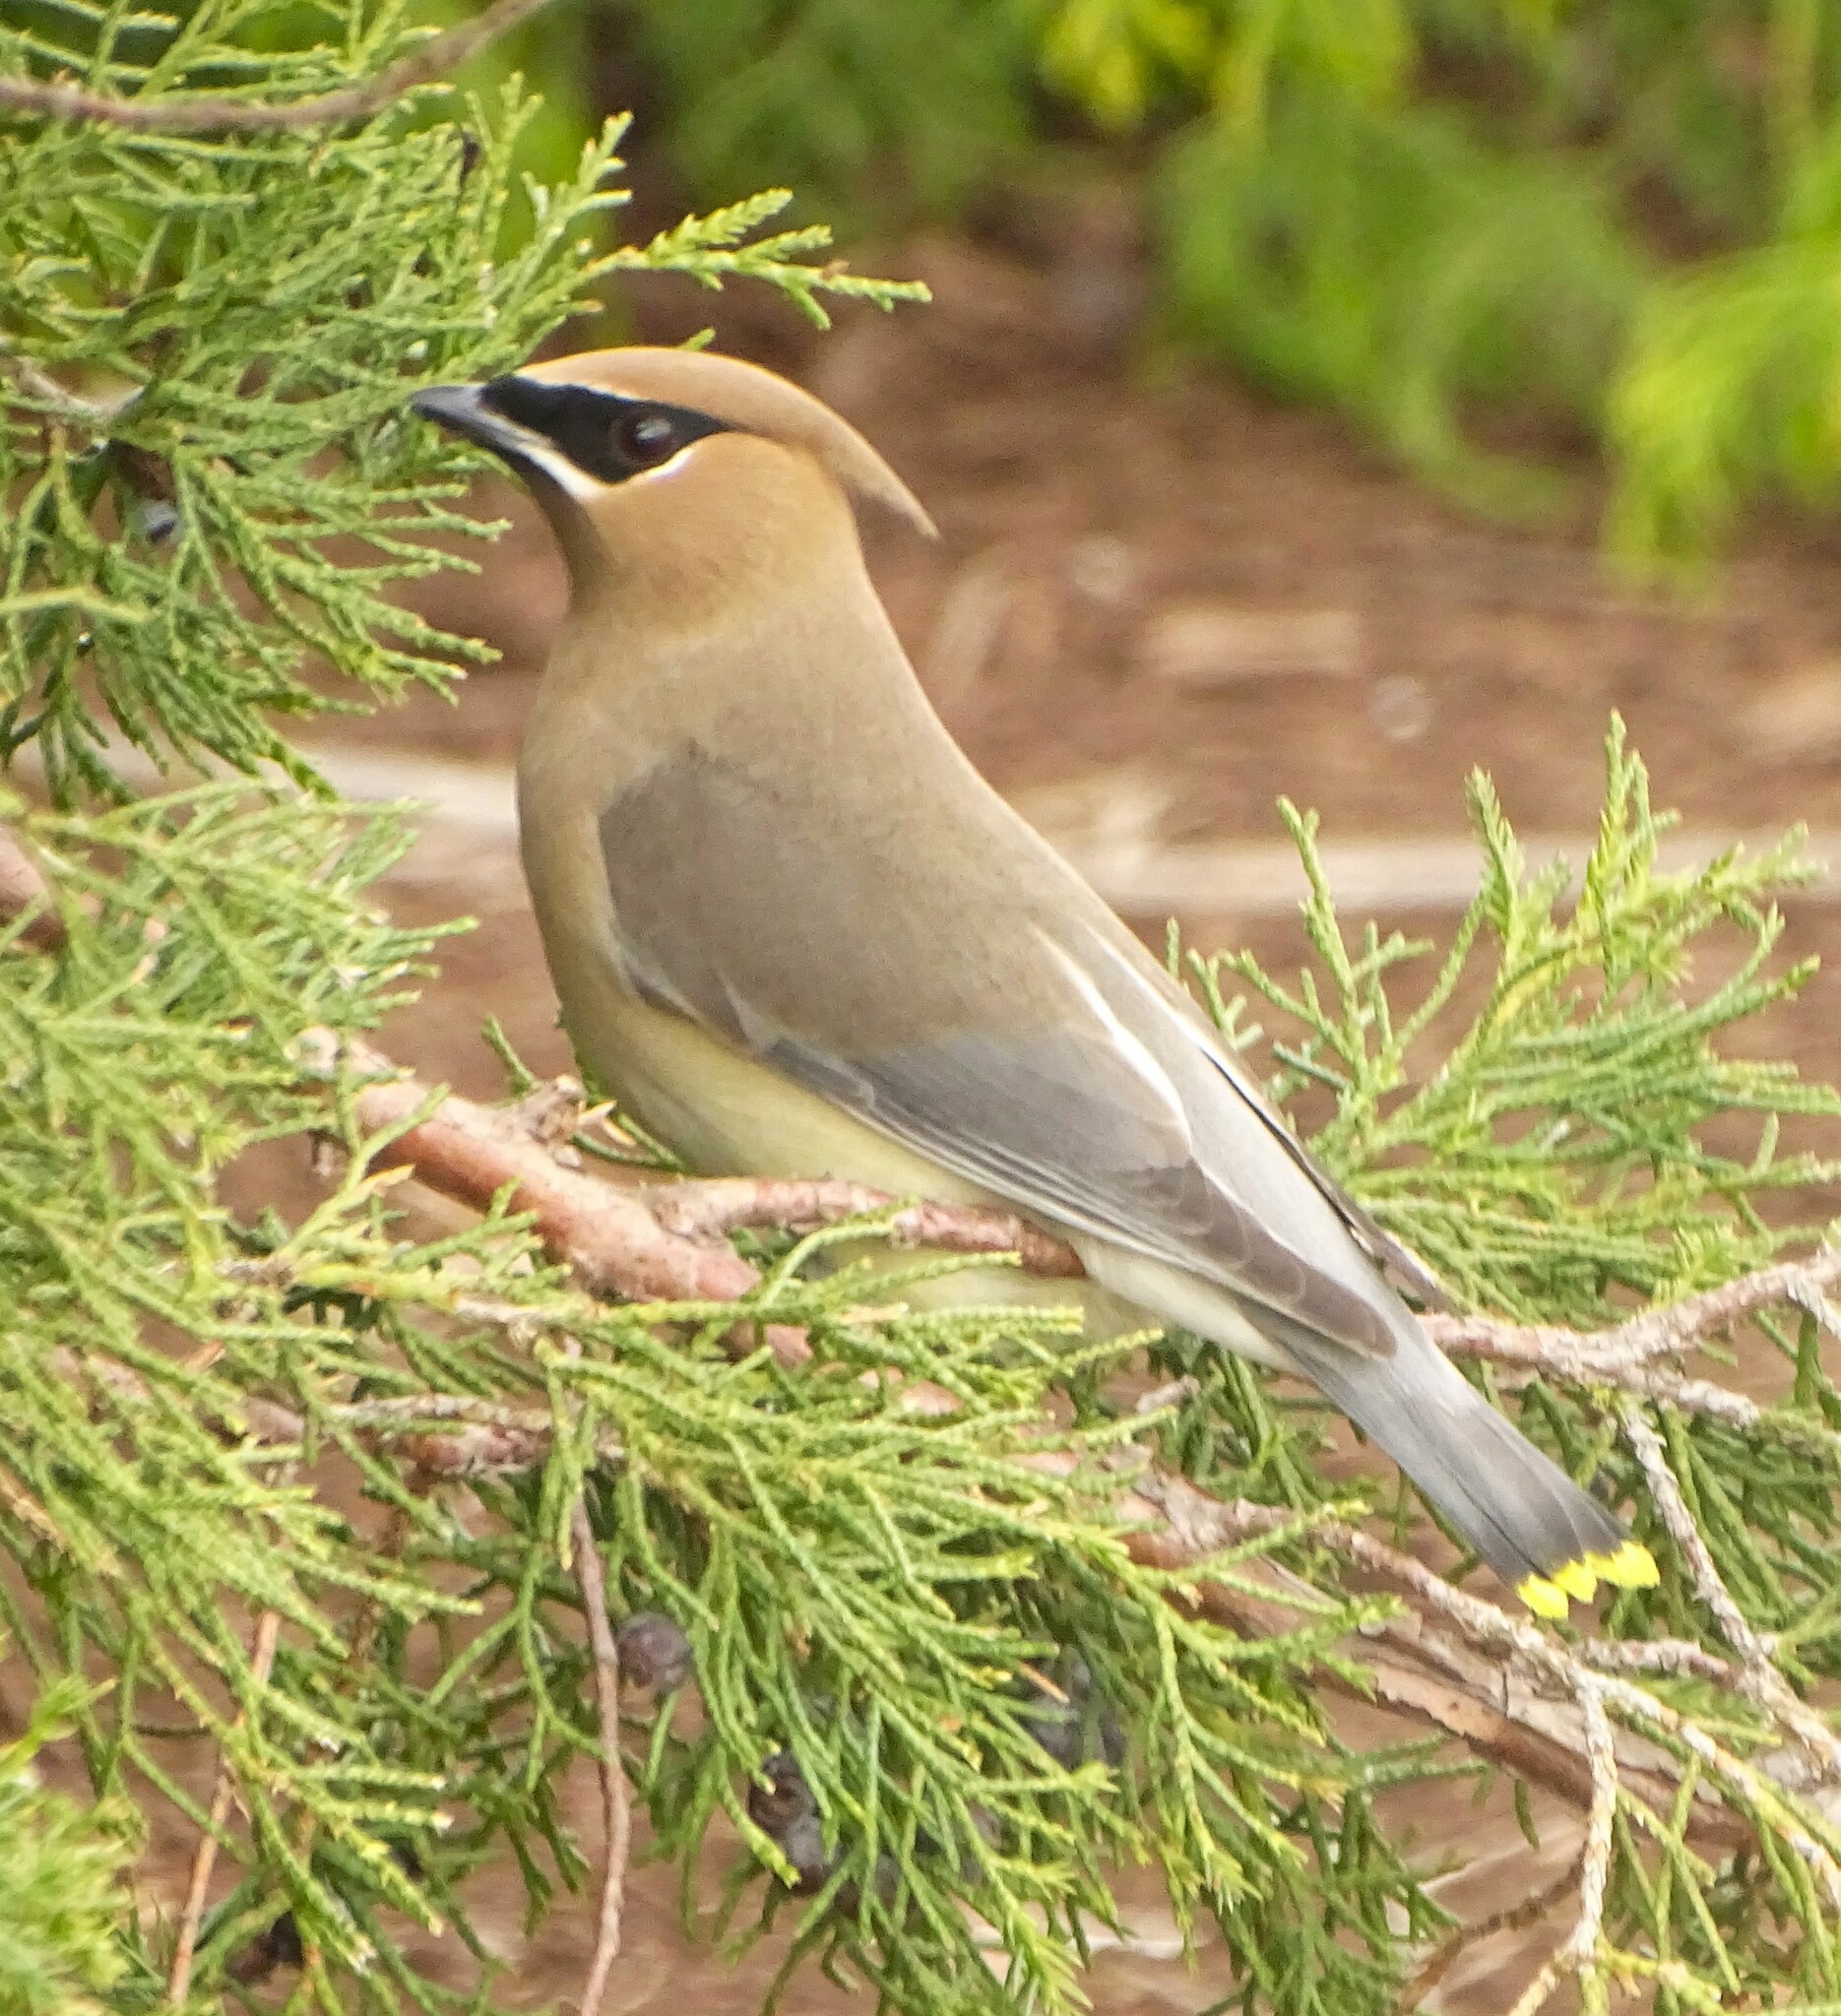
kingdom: Animalia
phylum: Chordata
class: Aves
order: Passeriformes
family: Bombycillidae
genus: Bombycilla
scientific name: Bombycilla cedrorum
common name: Cedar waxwing
